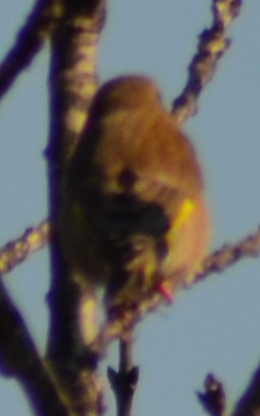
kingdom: Animalia
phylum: Chordata
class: Aves
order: Passeriformes
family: Fringillidae
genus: Carduelis
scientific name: Carduelis carduelis
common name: European goldfinch
